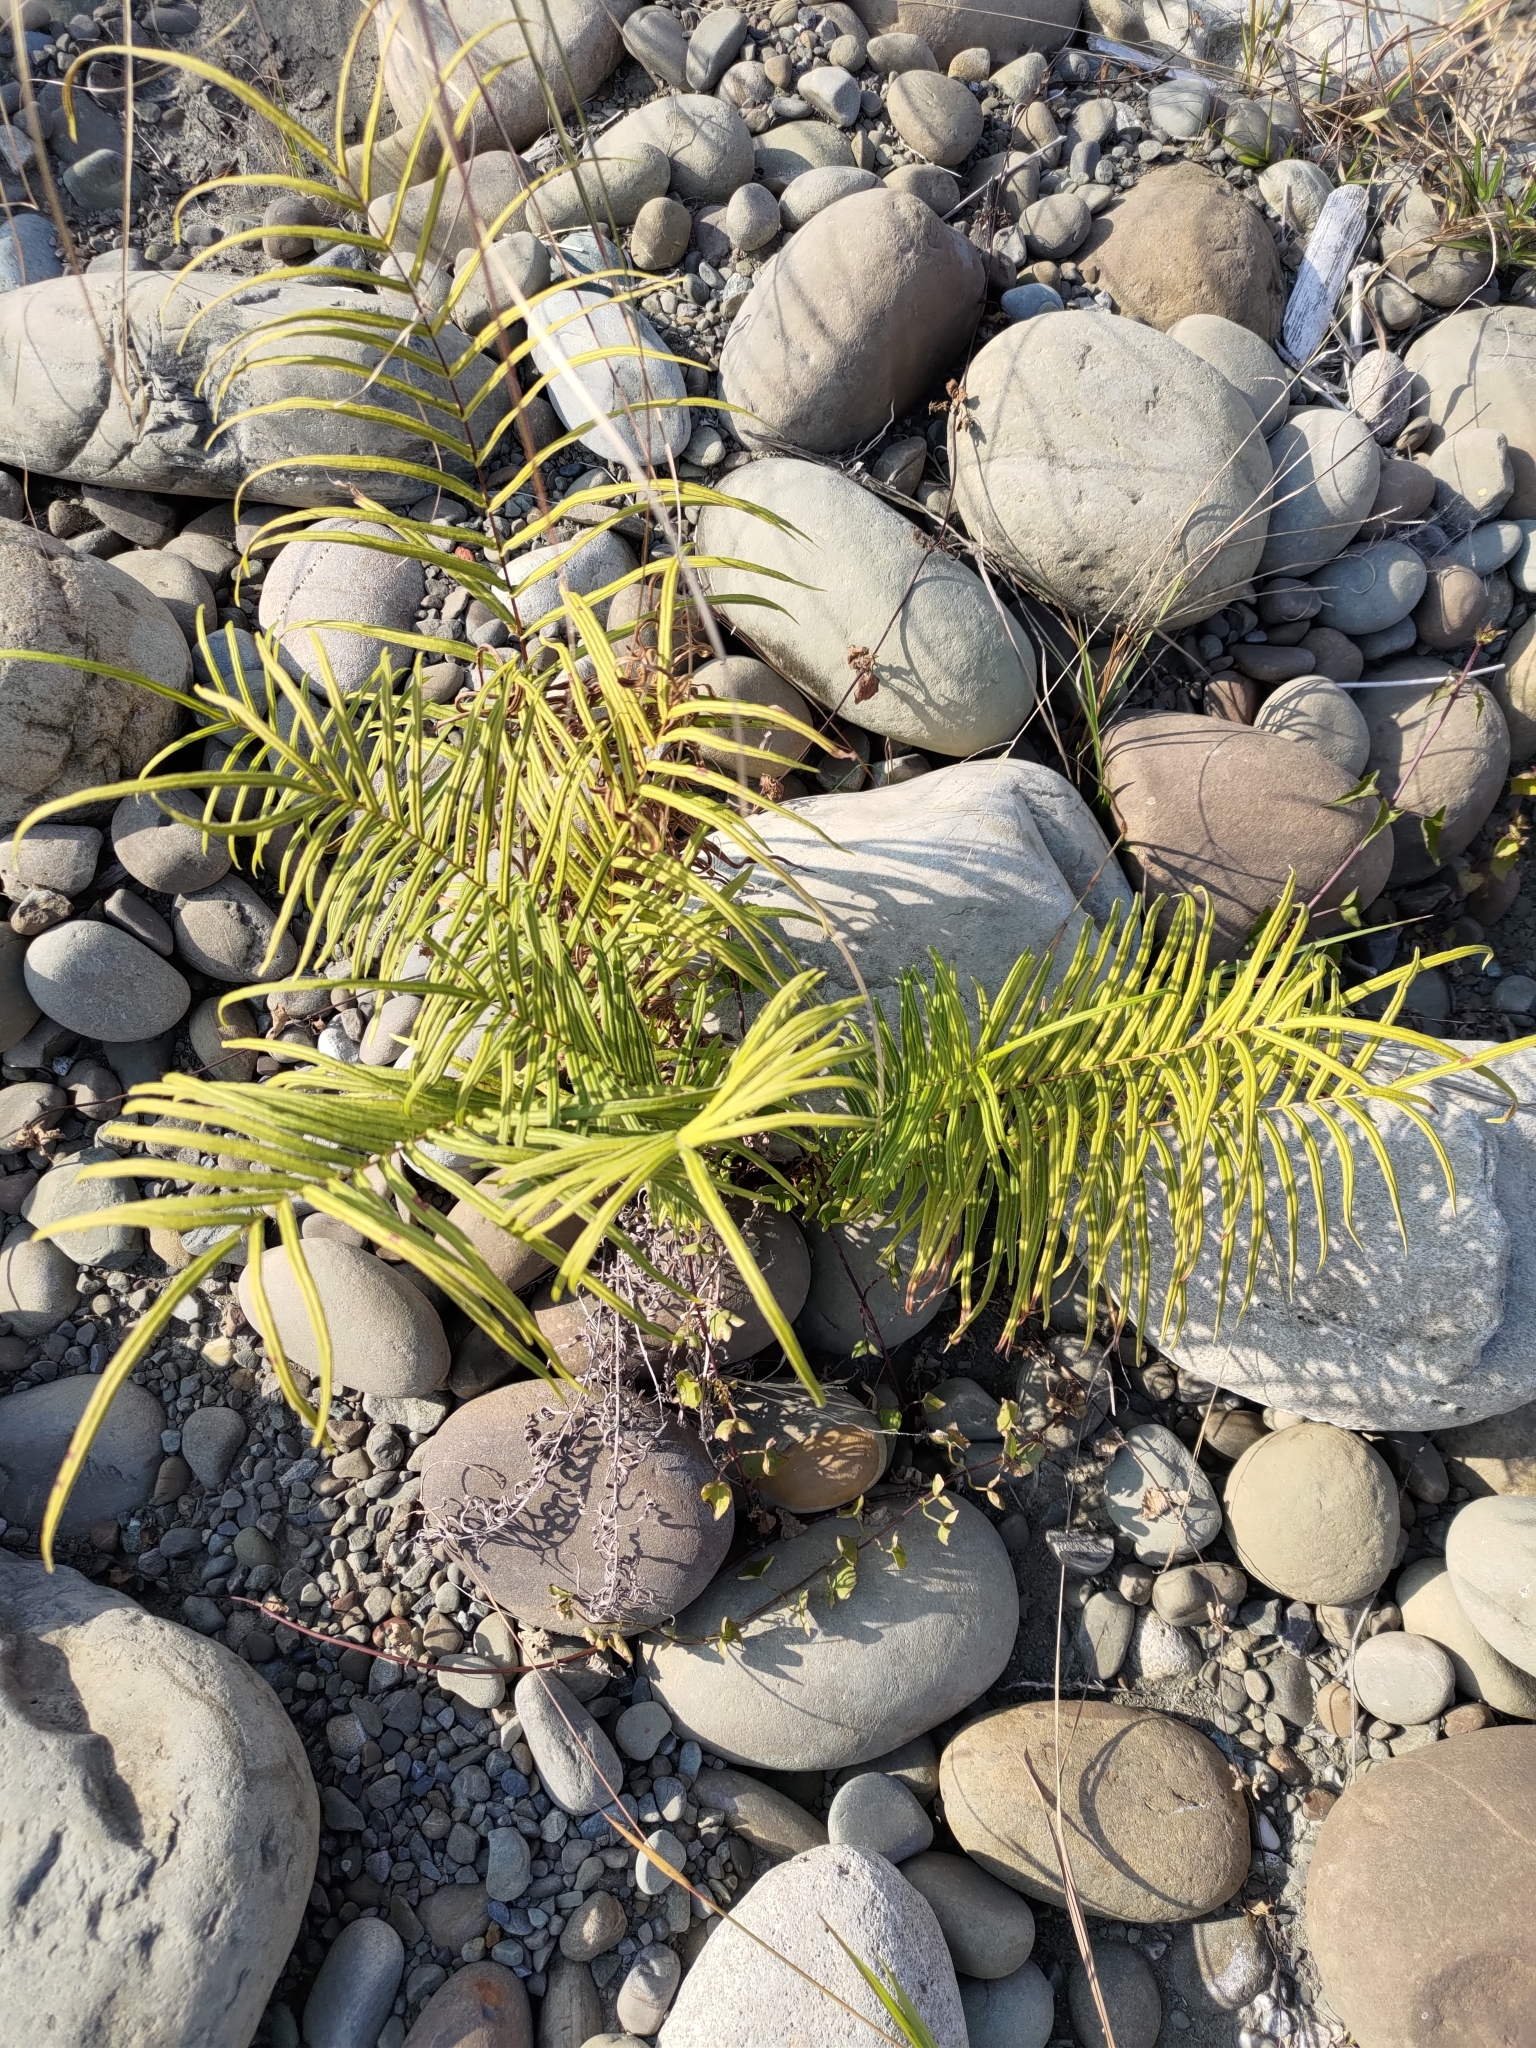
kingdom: Plantae
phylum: Tracheophyta
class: Polypodiopsida
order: Polypodiales
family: Pteridaceae
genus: Pteris
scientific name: Pteris vittata
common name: Ladder brake
